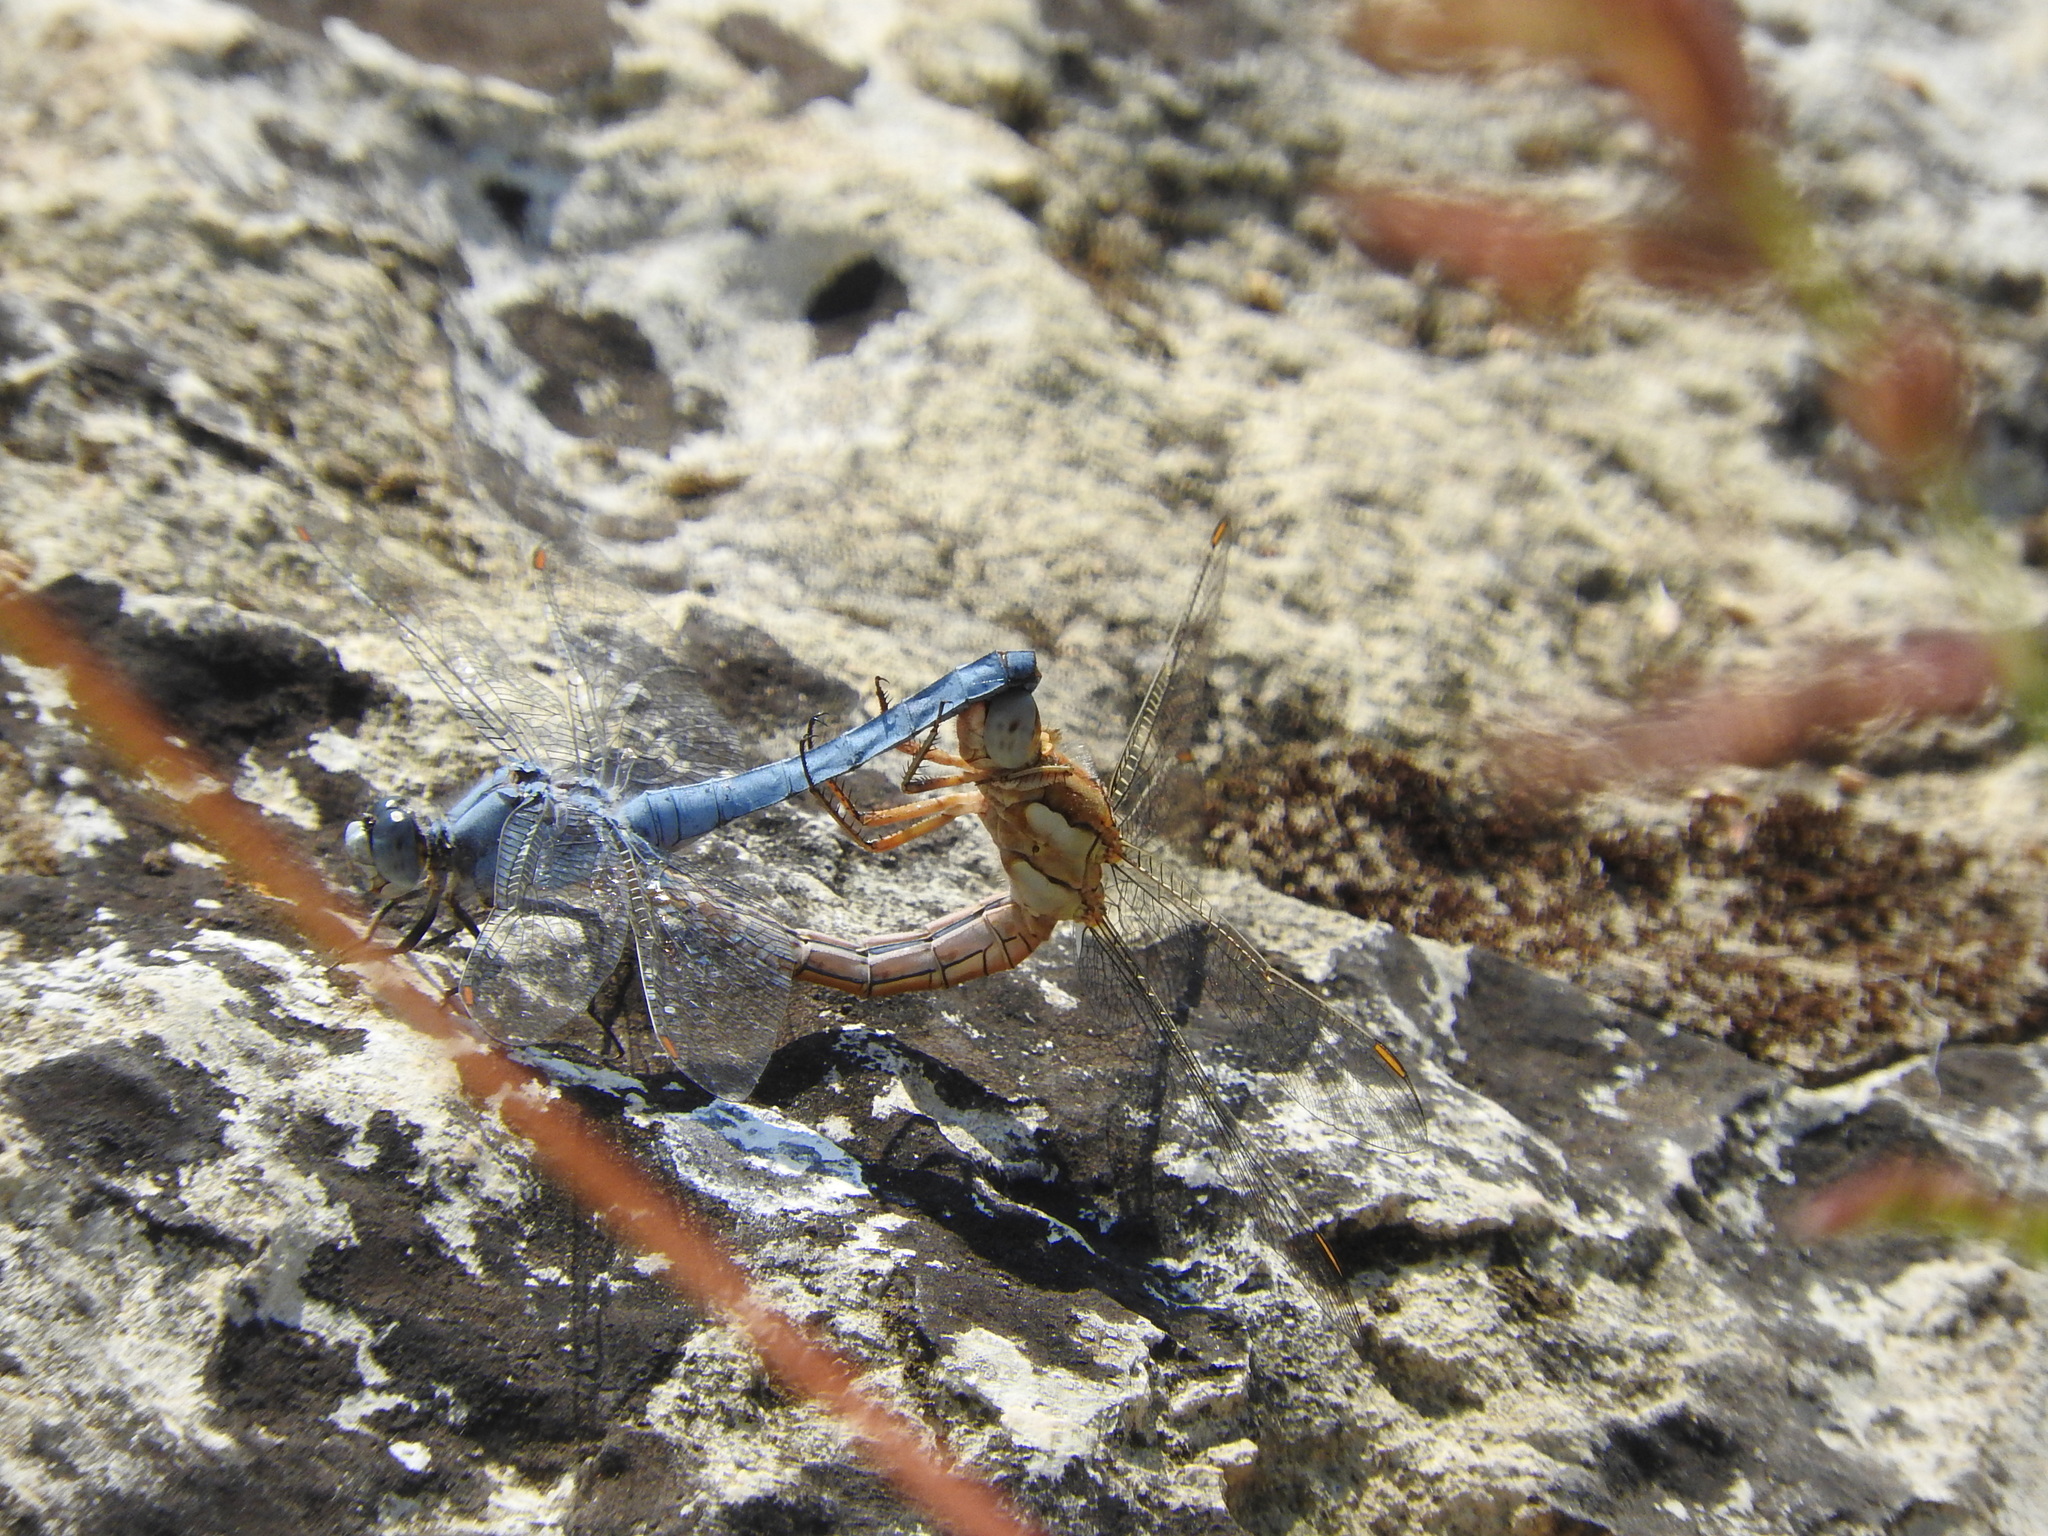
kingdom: Animalia
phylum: Arthropoda
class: Insecta
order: Odonata
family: Libellulidae
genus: Orthetrum
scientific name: Orthetrum brunneum
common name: Southern skimmer
